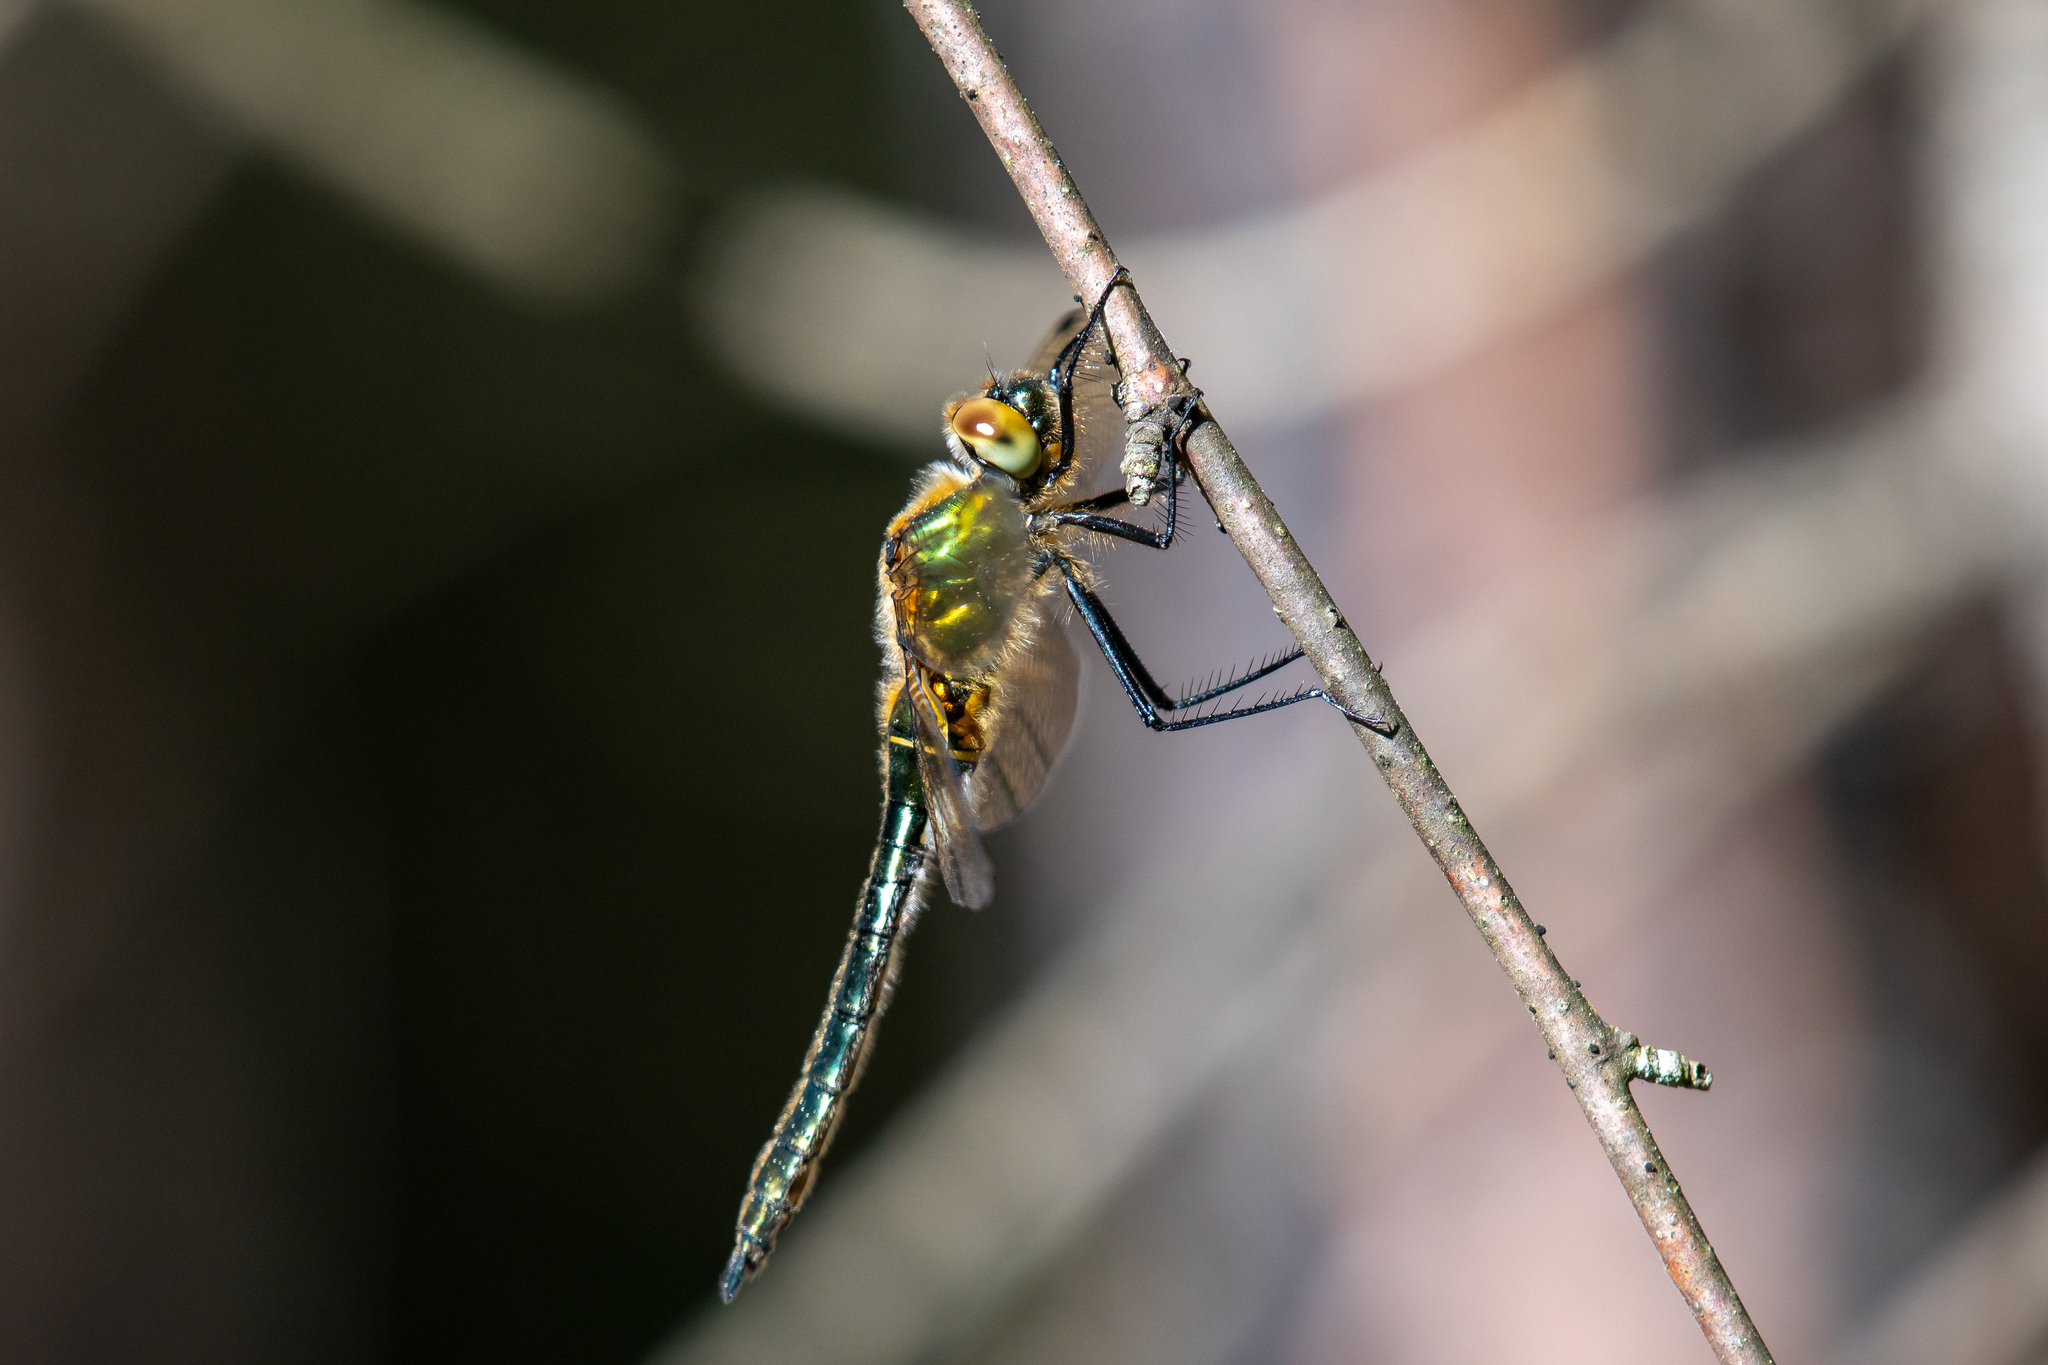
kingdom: Animalia
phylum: Arthropoda
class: Insecta
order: Odonata
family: Corduliidae
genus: Cordulia
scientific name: Cordulia aenea
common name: Downy emerald
